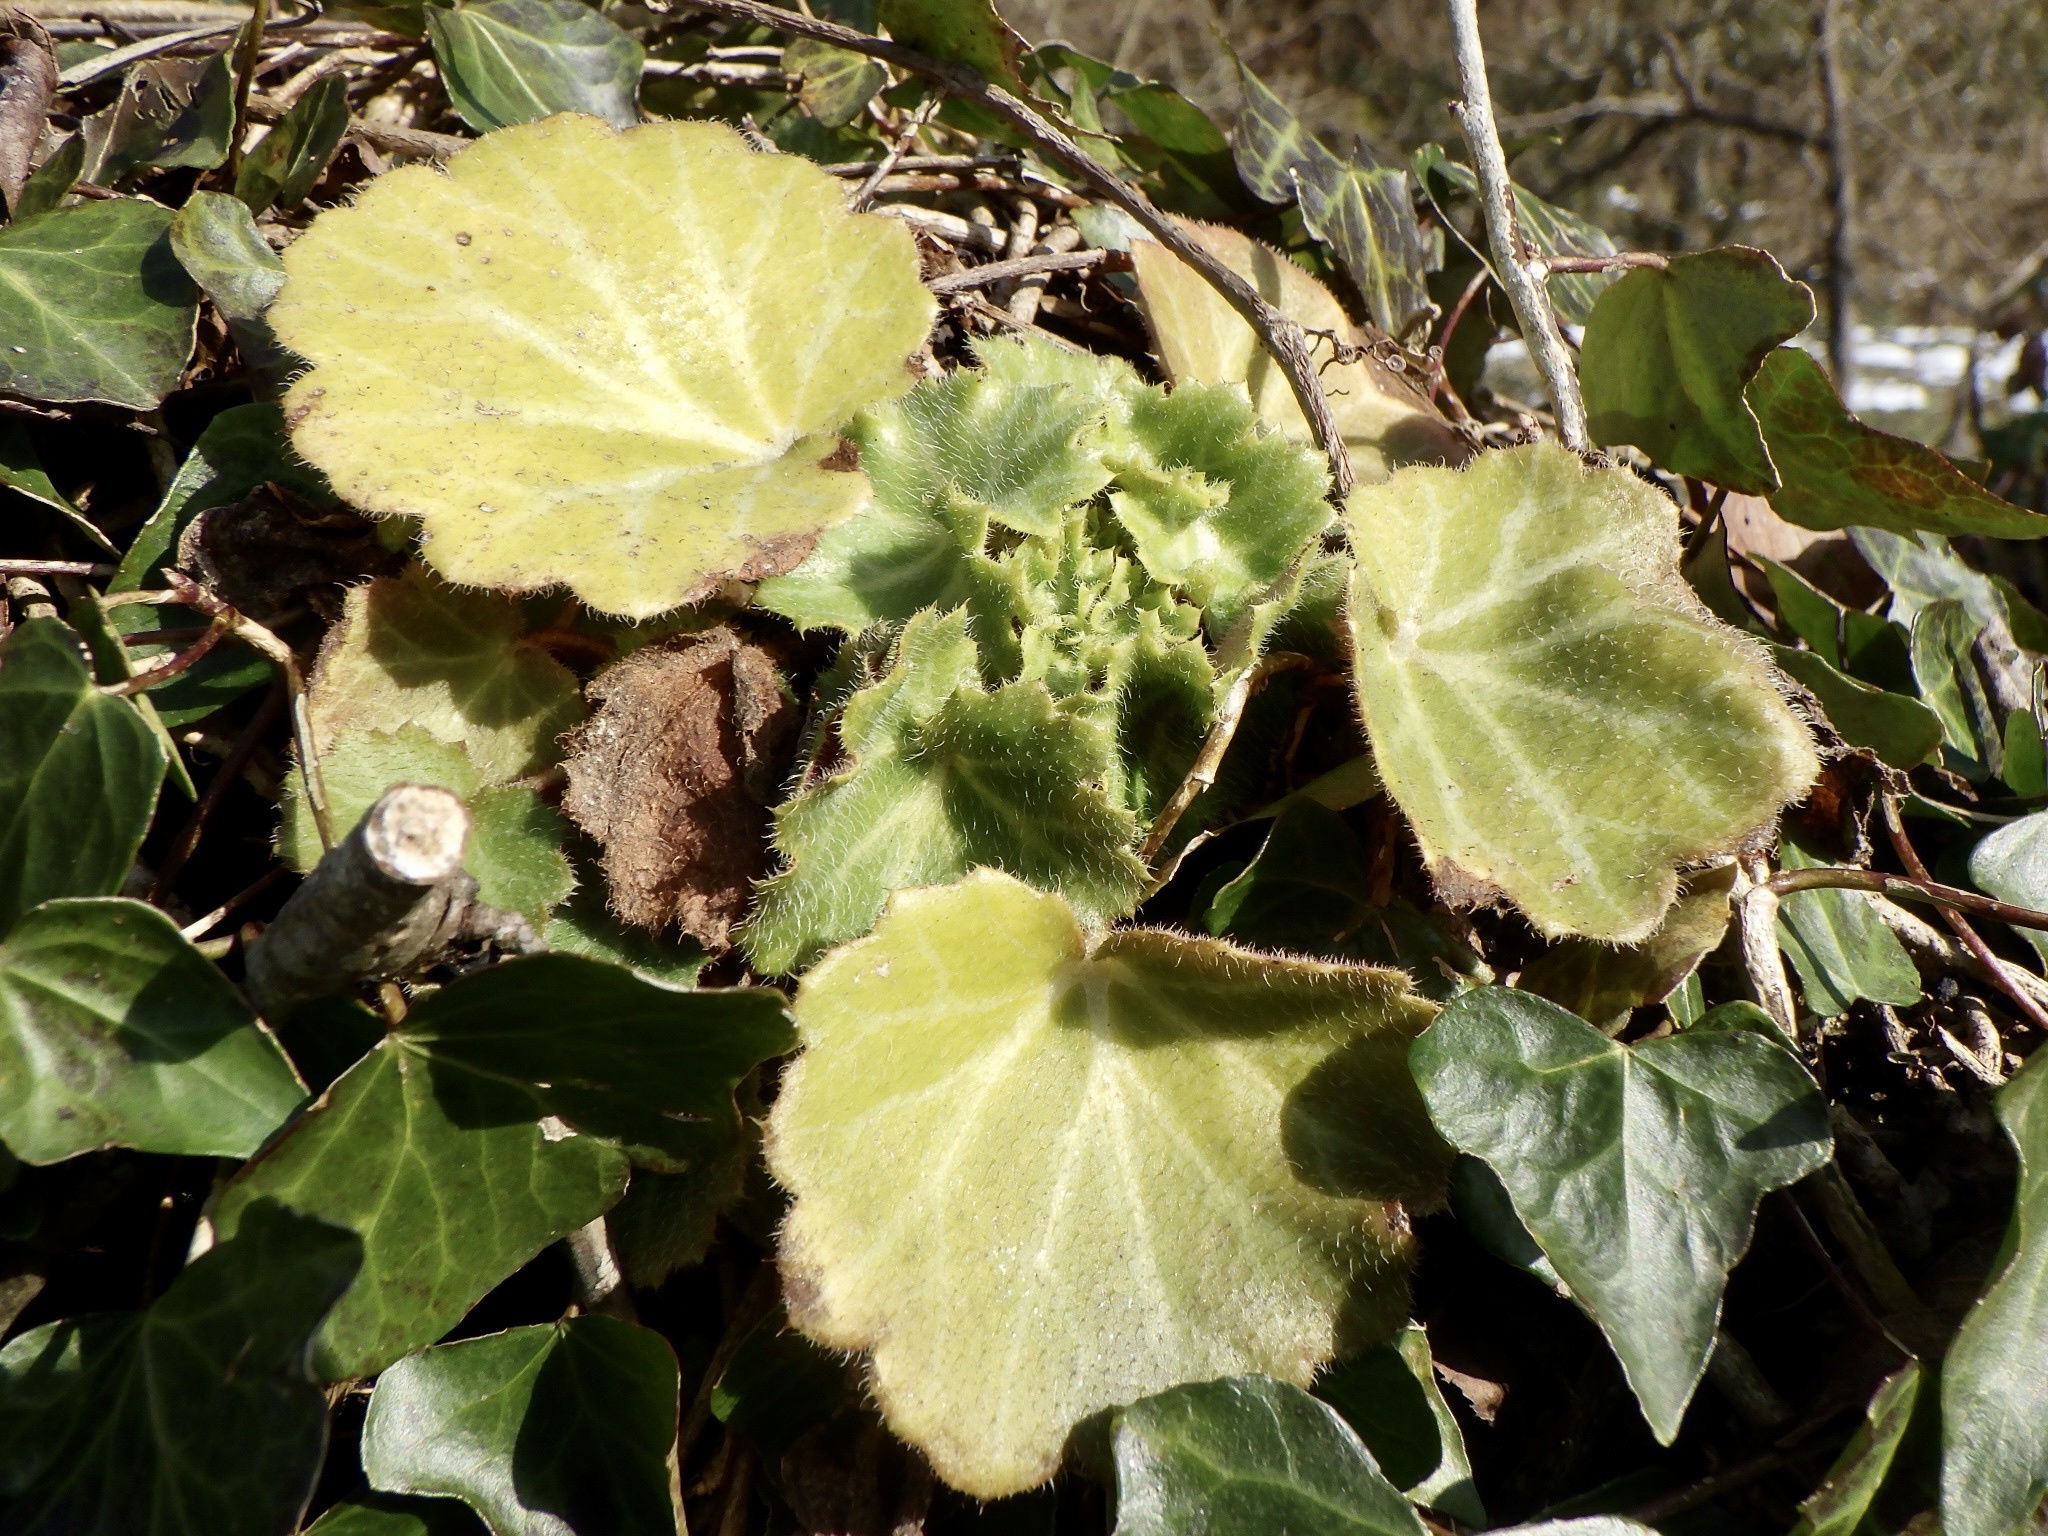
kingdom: Plantae
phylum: Tracheophyta
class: Magnoliopsida
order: Saxifragales
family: Saxifragaceae
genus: Saxifraga
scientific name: Saxifraga stolonifera
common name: Creeping saxifrage
